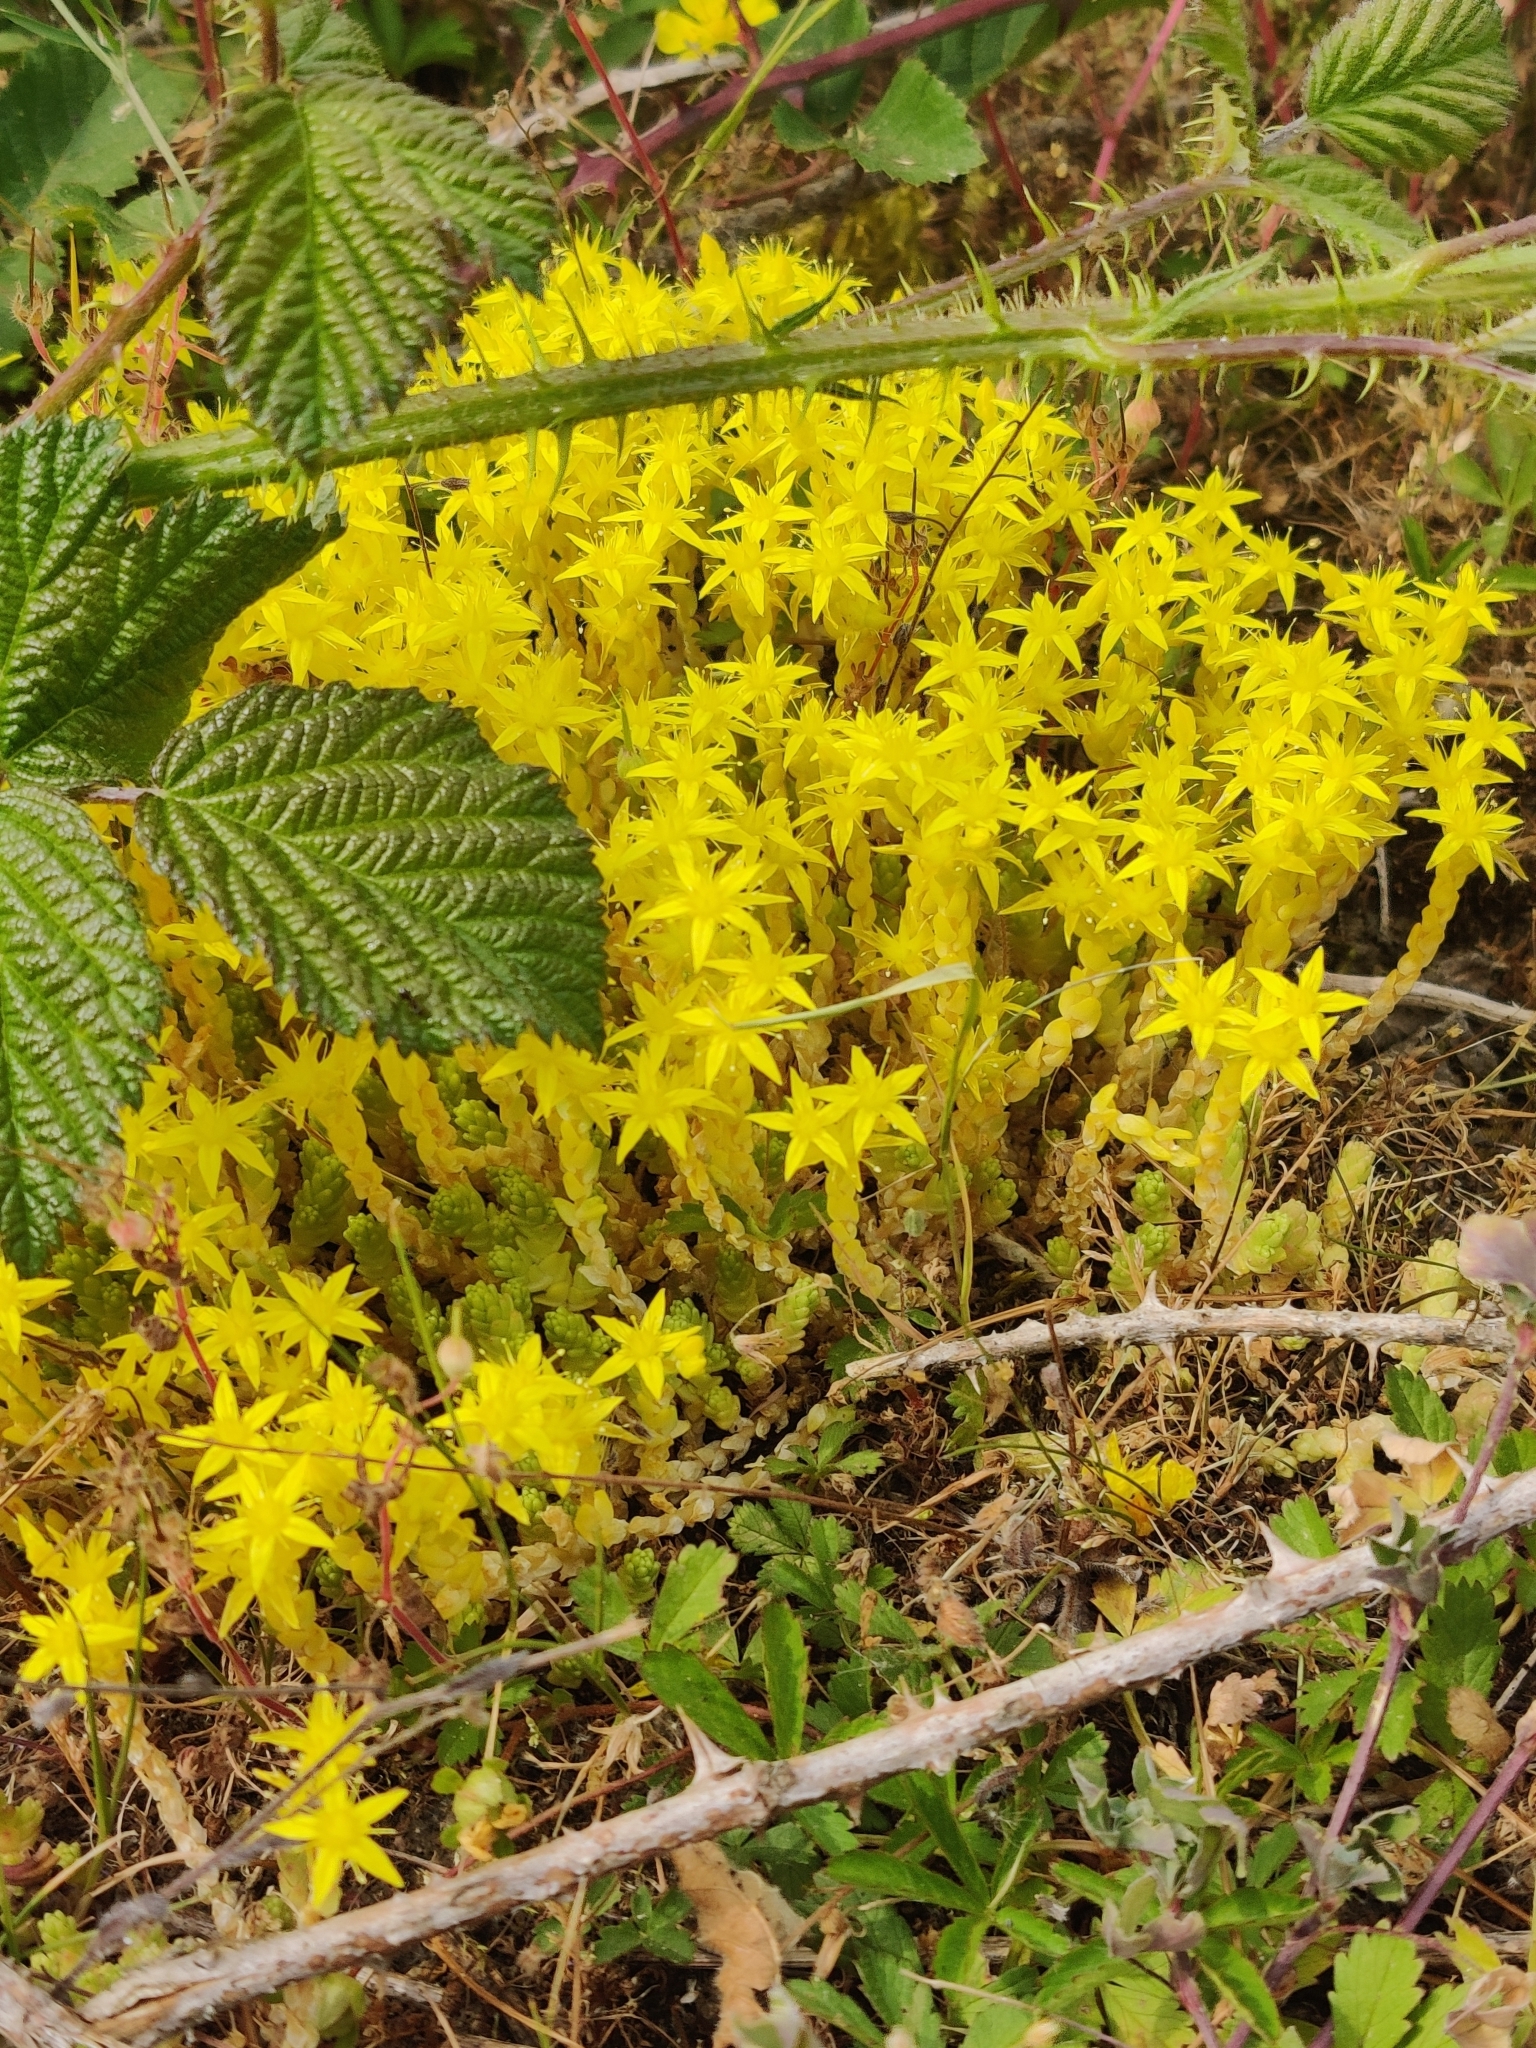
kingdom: Plantae
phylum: Tracheophyta
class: Magnoliopsida
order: Saxifragales
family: Crassulaceae
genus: Sedum
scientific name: Sedum acre
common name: Biting stonecrop
